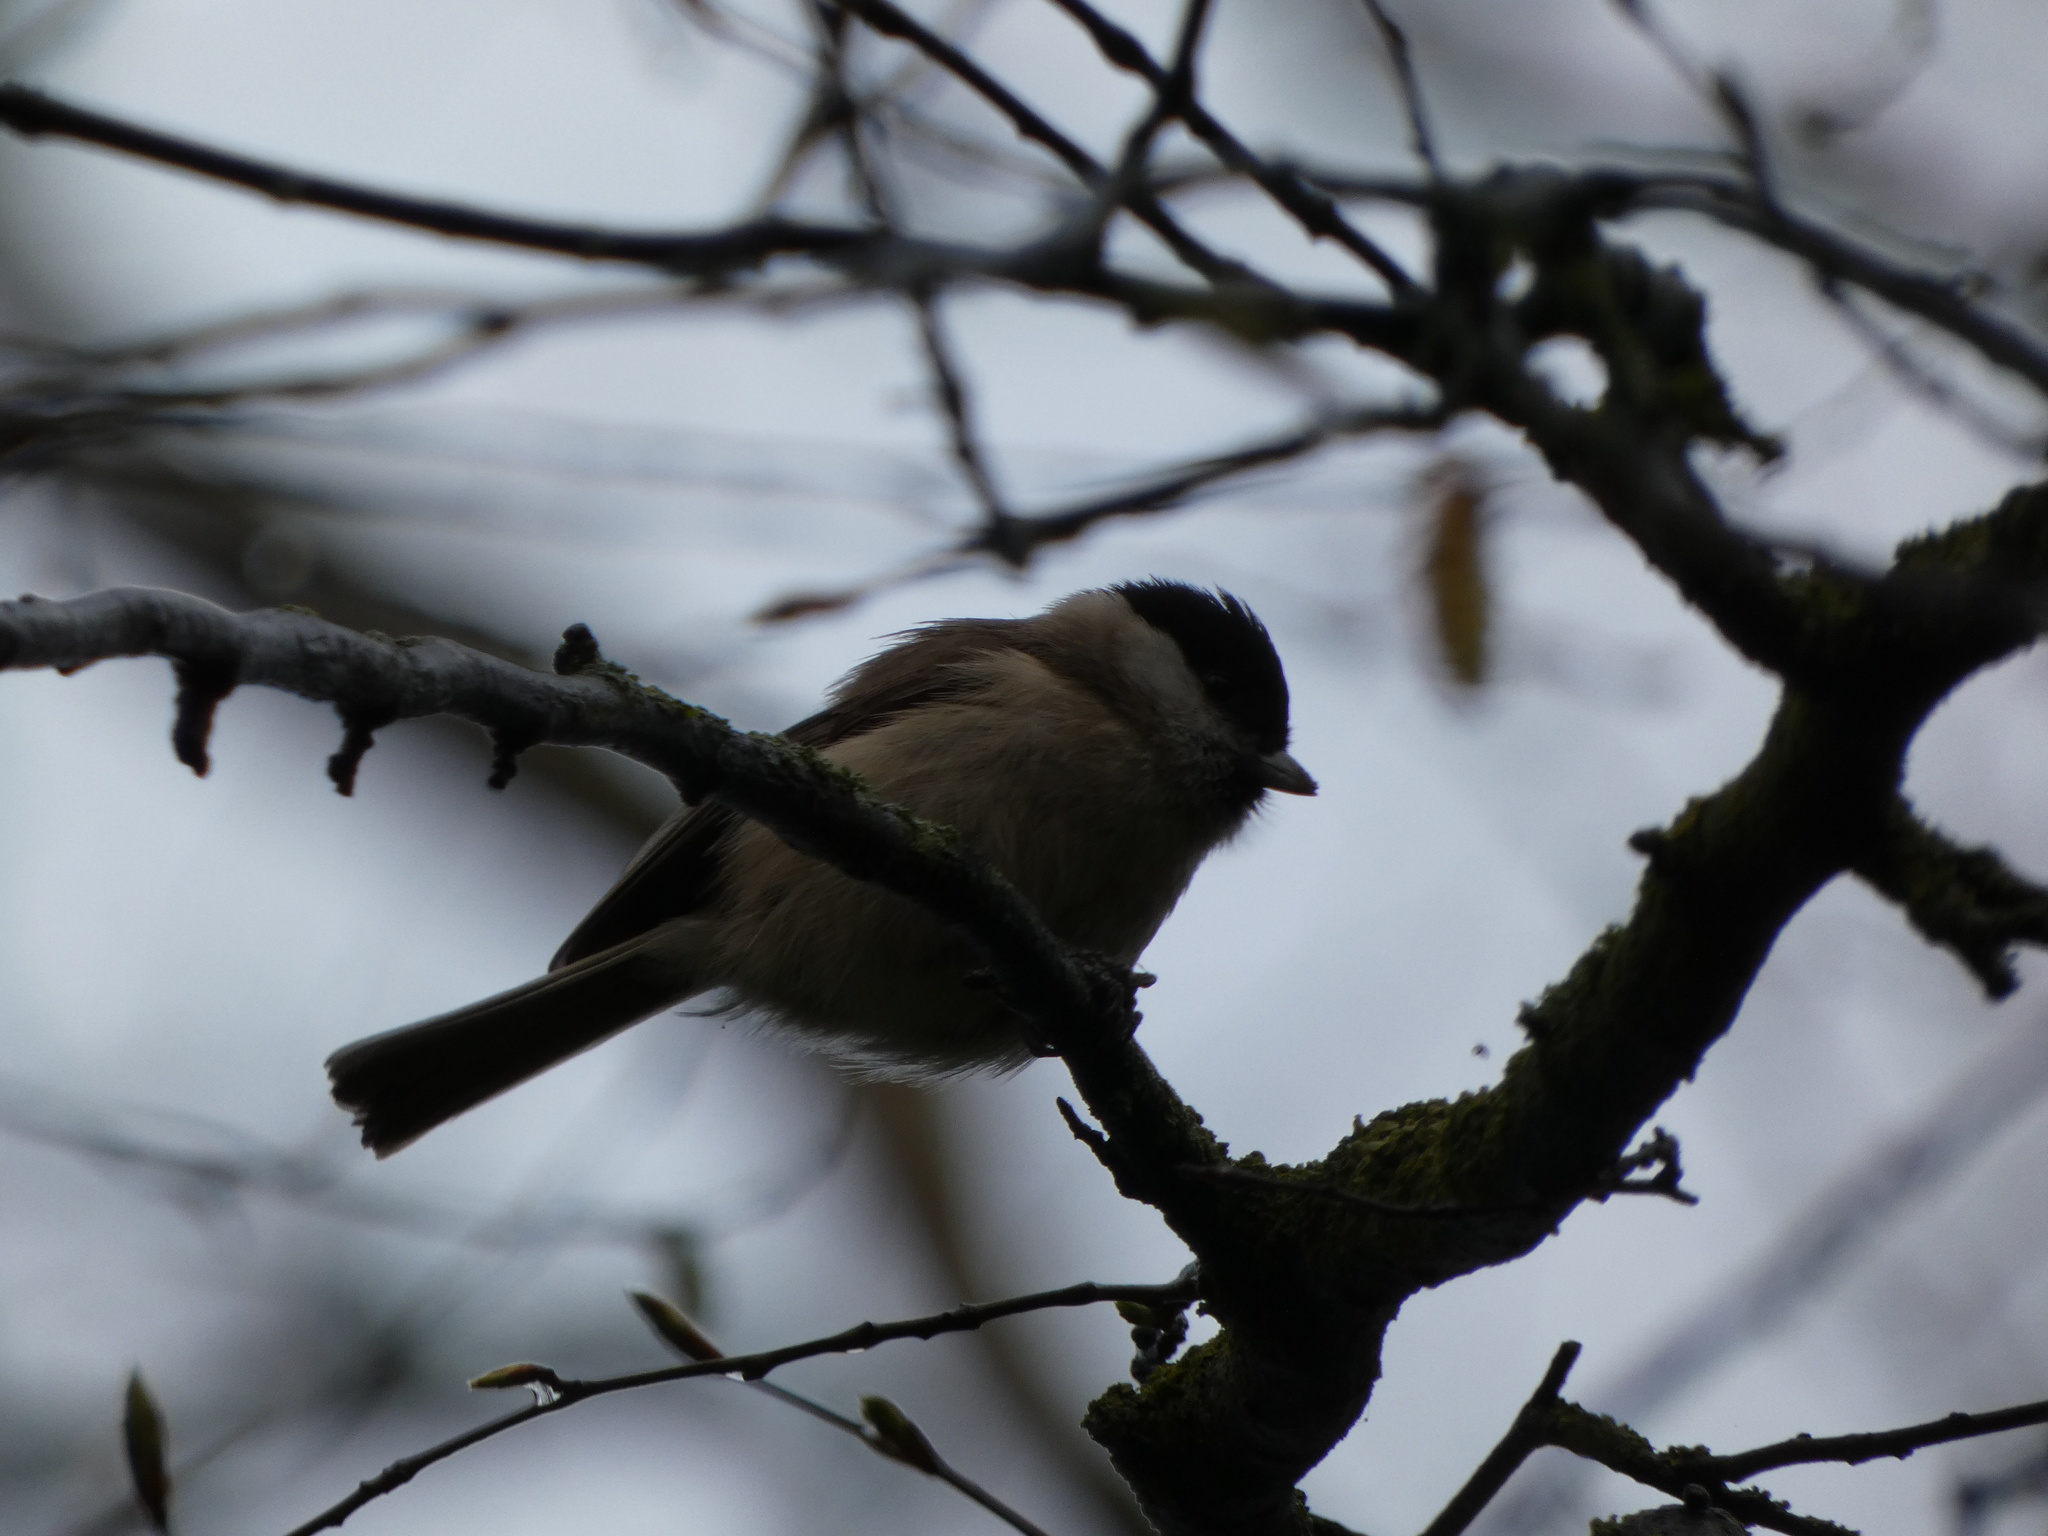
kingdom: Animalia
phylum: Chordata
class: Aves
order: Passeriformes
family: Paridae
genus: Poecile
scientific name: Poecile palustris
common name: Marsh tit
